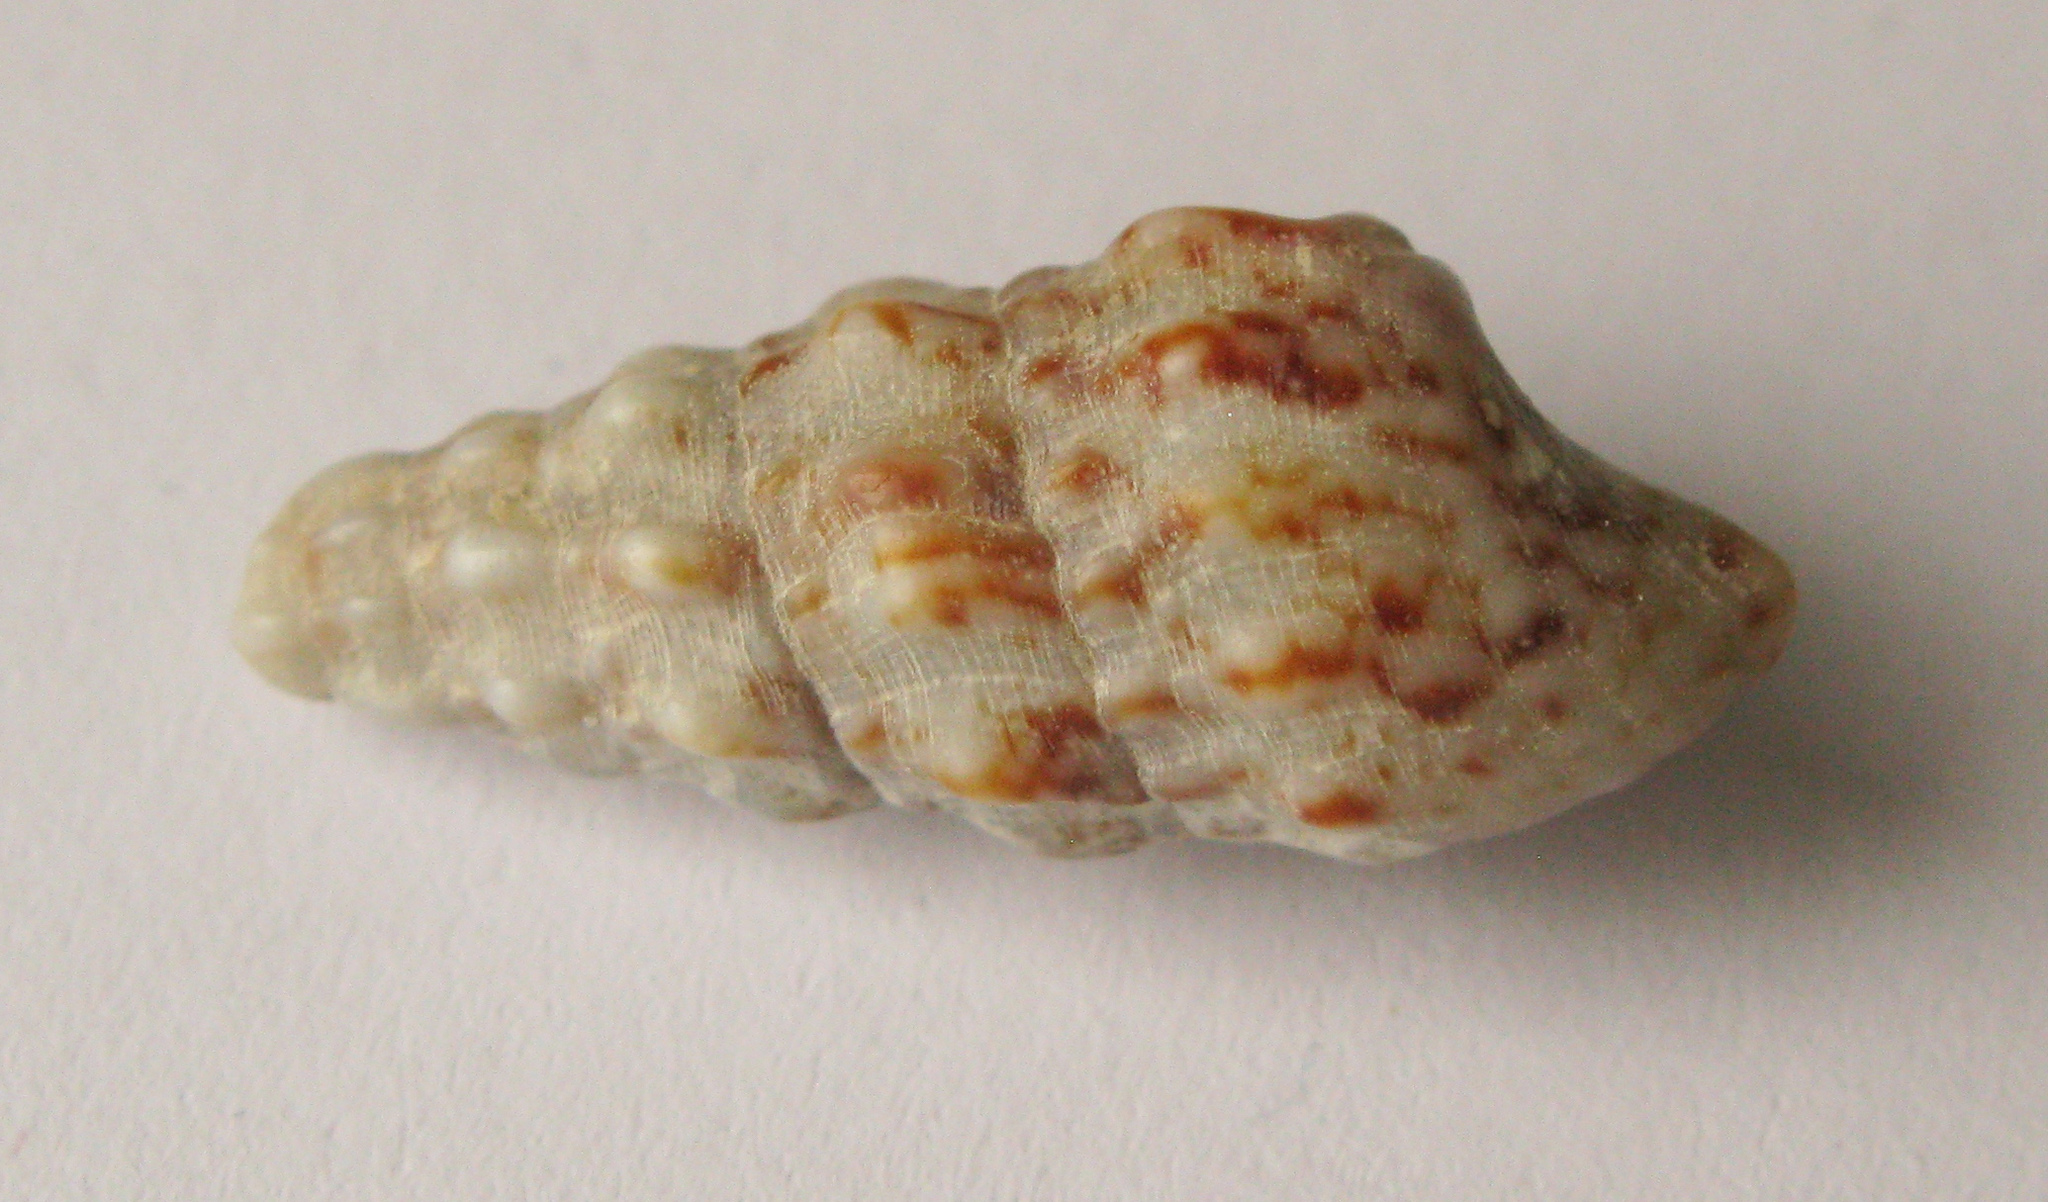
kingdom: Animalia
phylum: Mollusca
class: Gastropoda
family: Cerithiidae
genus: Cerithium
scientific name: Cerithium vulgatum
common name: European cerith
